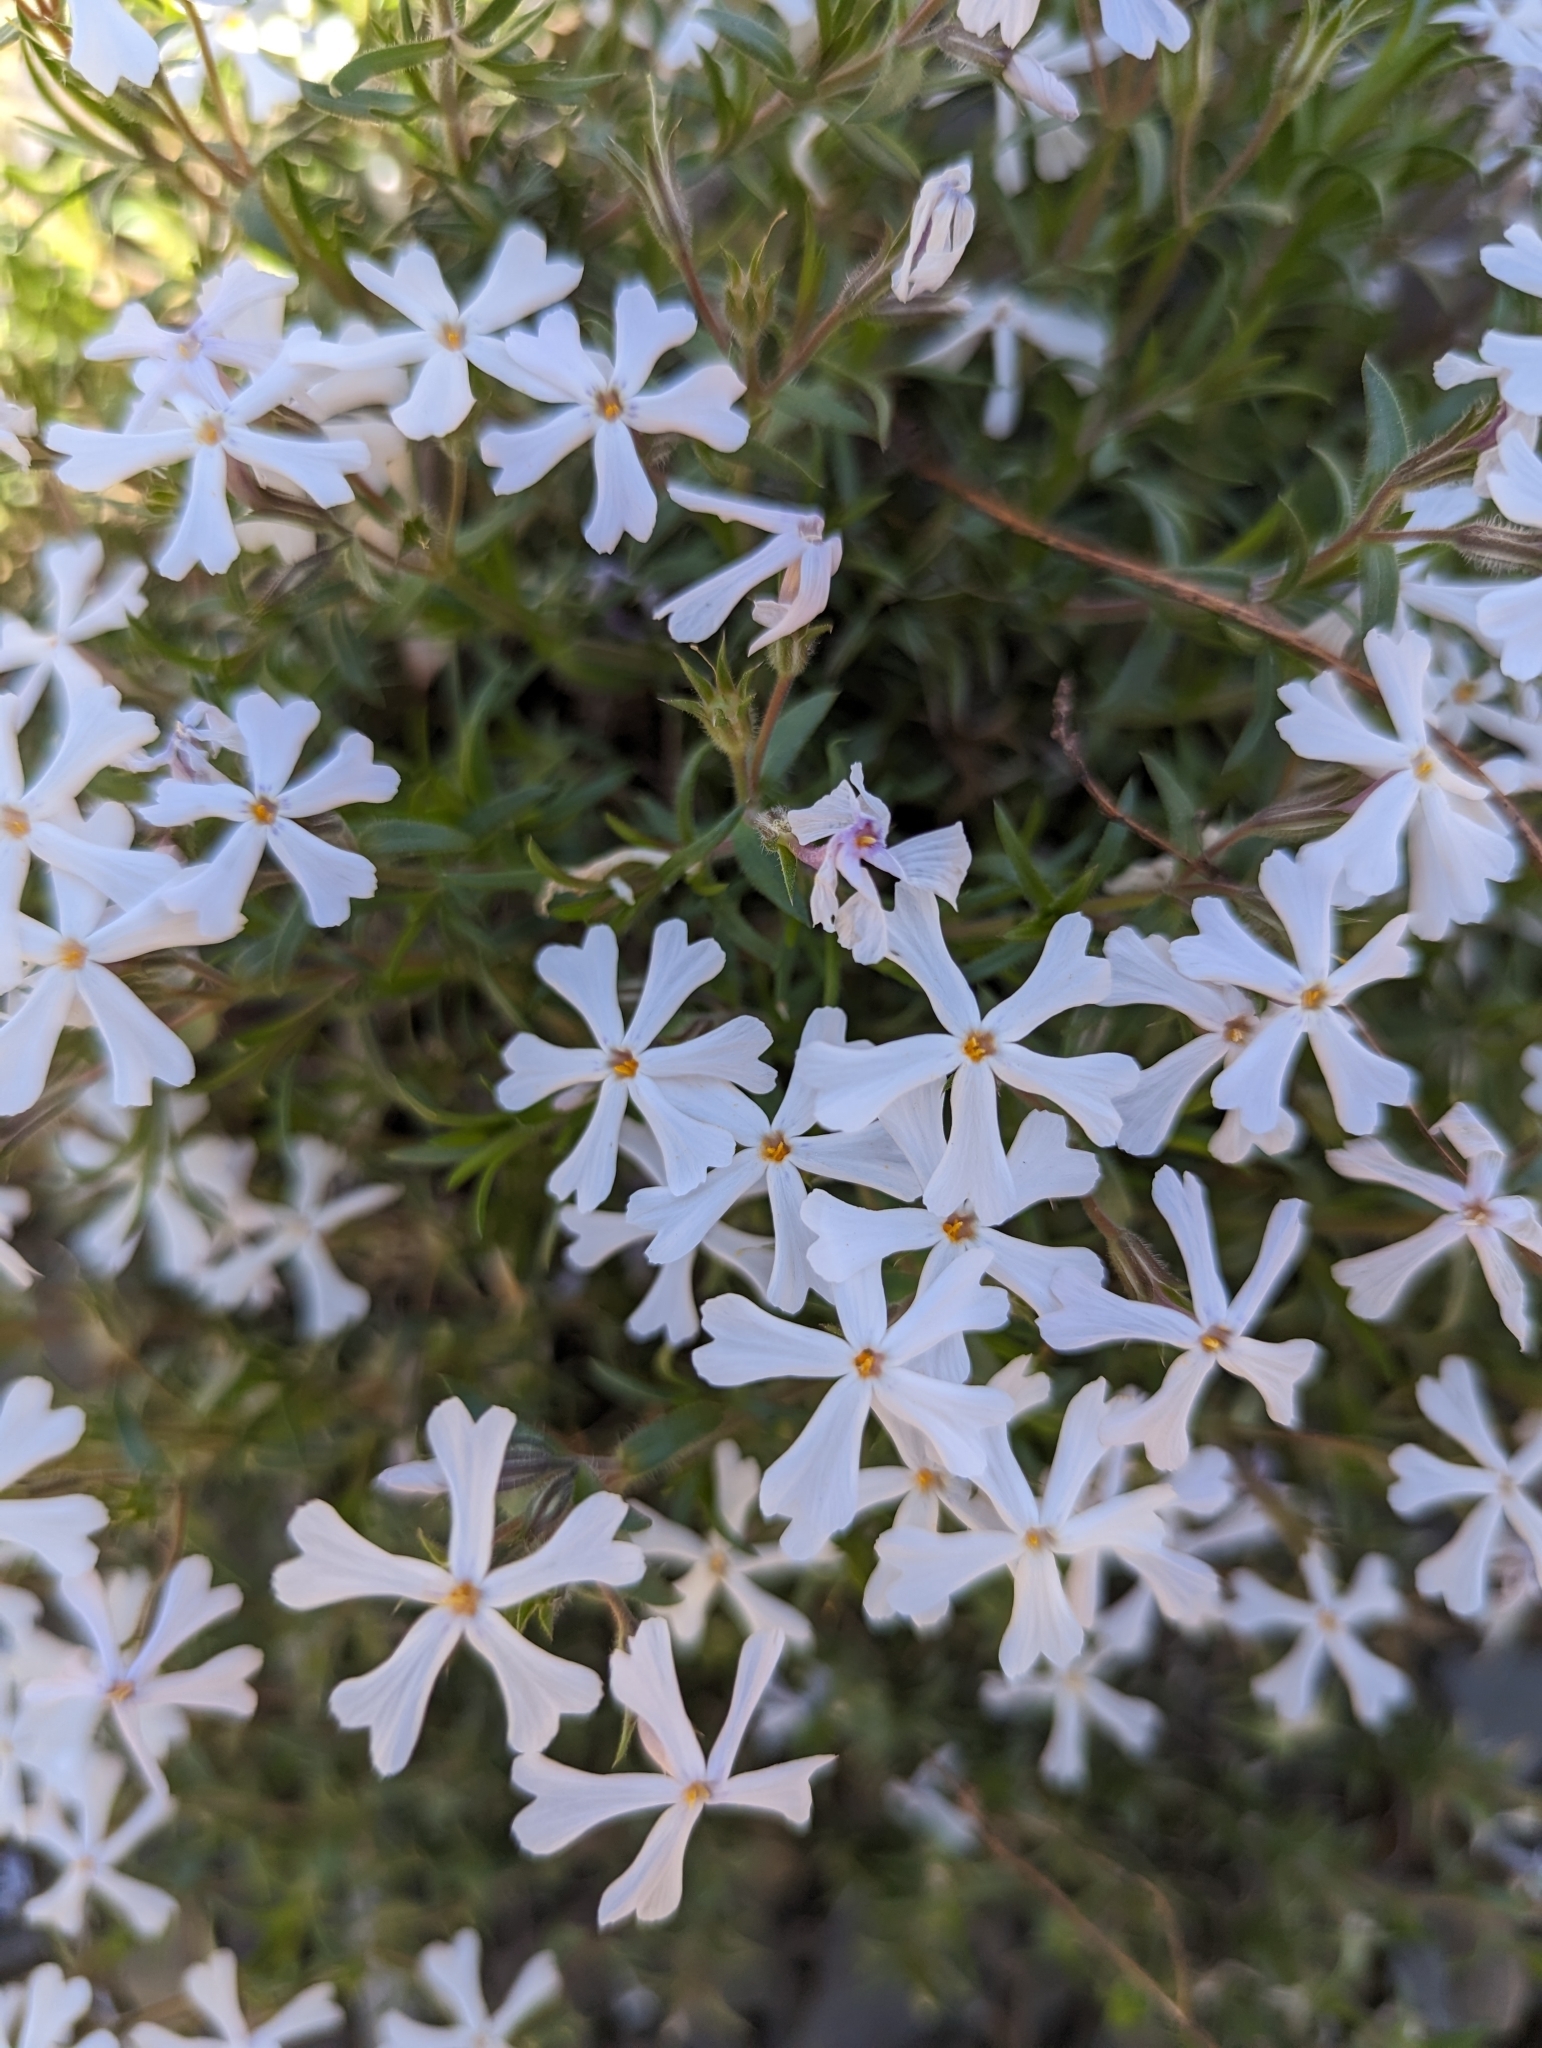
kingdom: Plantae
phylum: Tracheophyta
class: Magnoliopsida
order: Ericales
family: Polemoniaceae
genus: Phlox
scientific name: Phlox subulata
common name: Moss phlox
